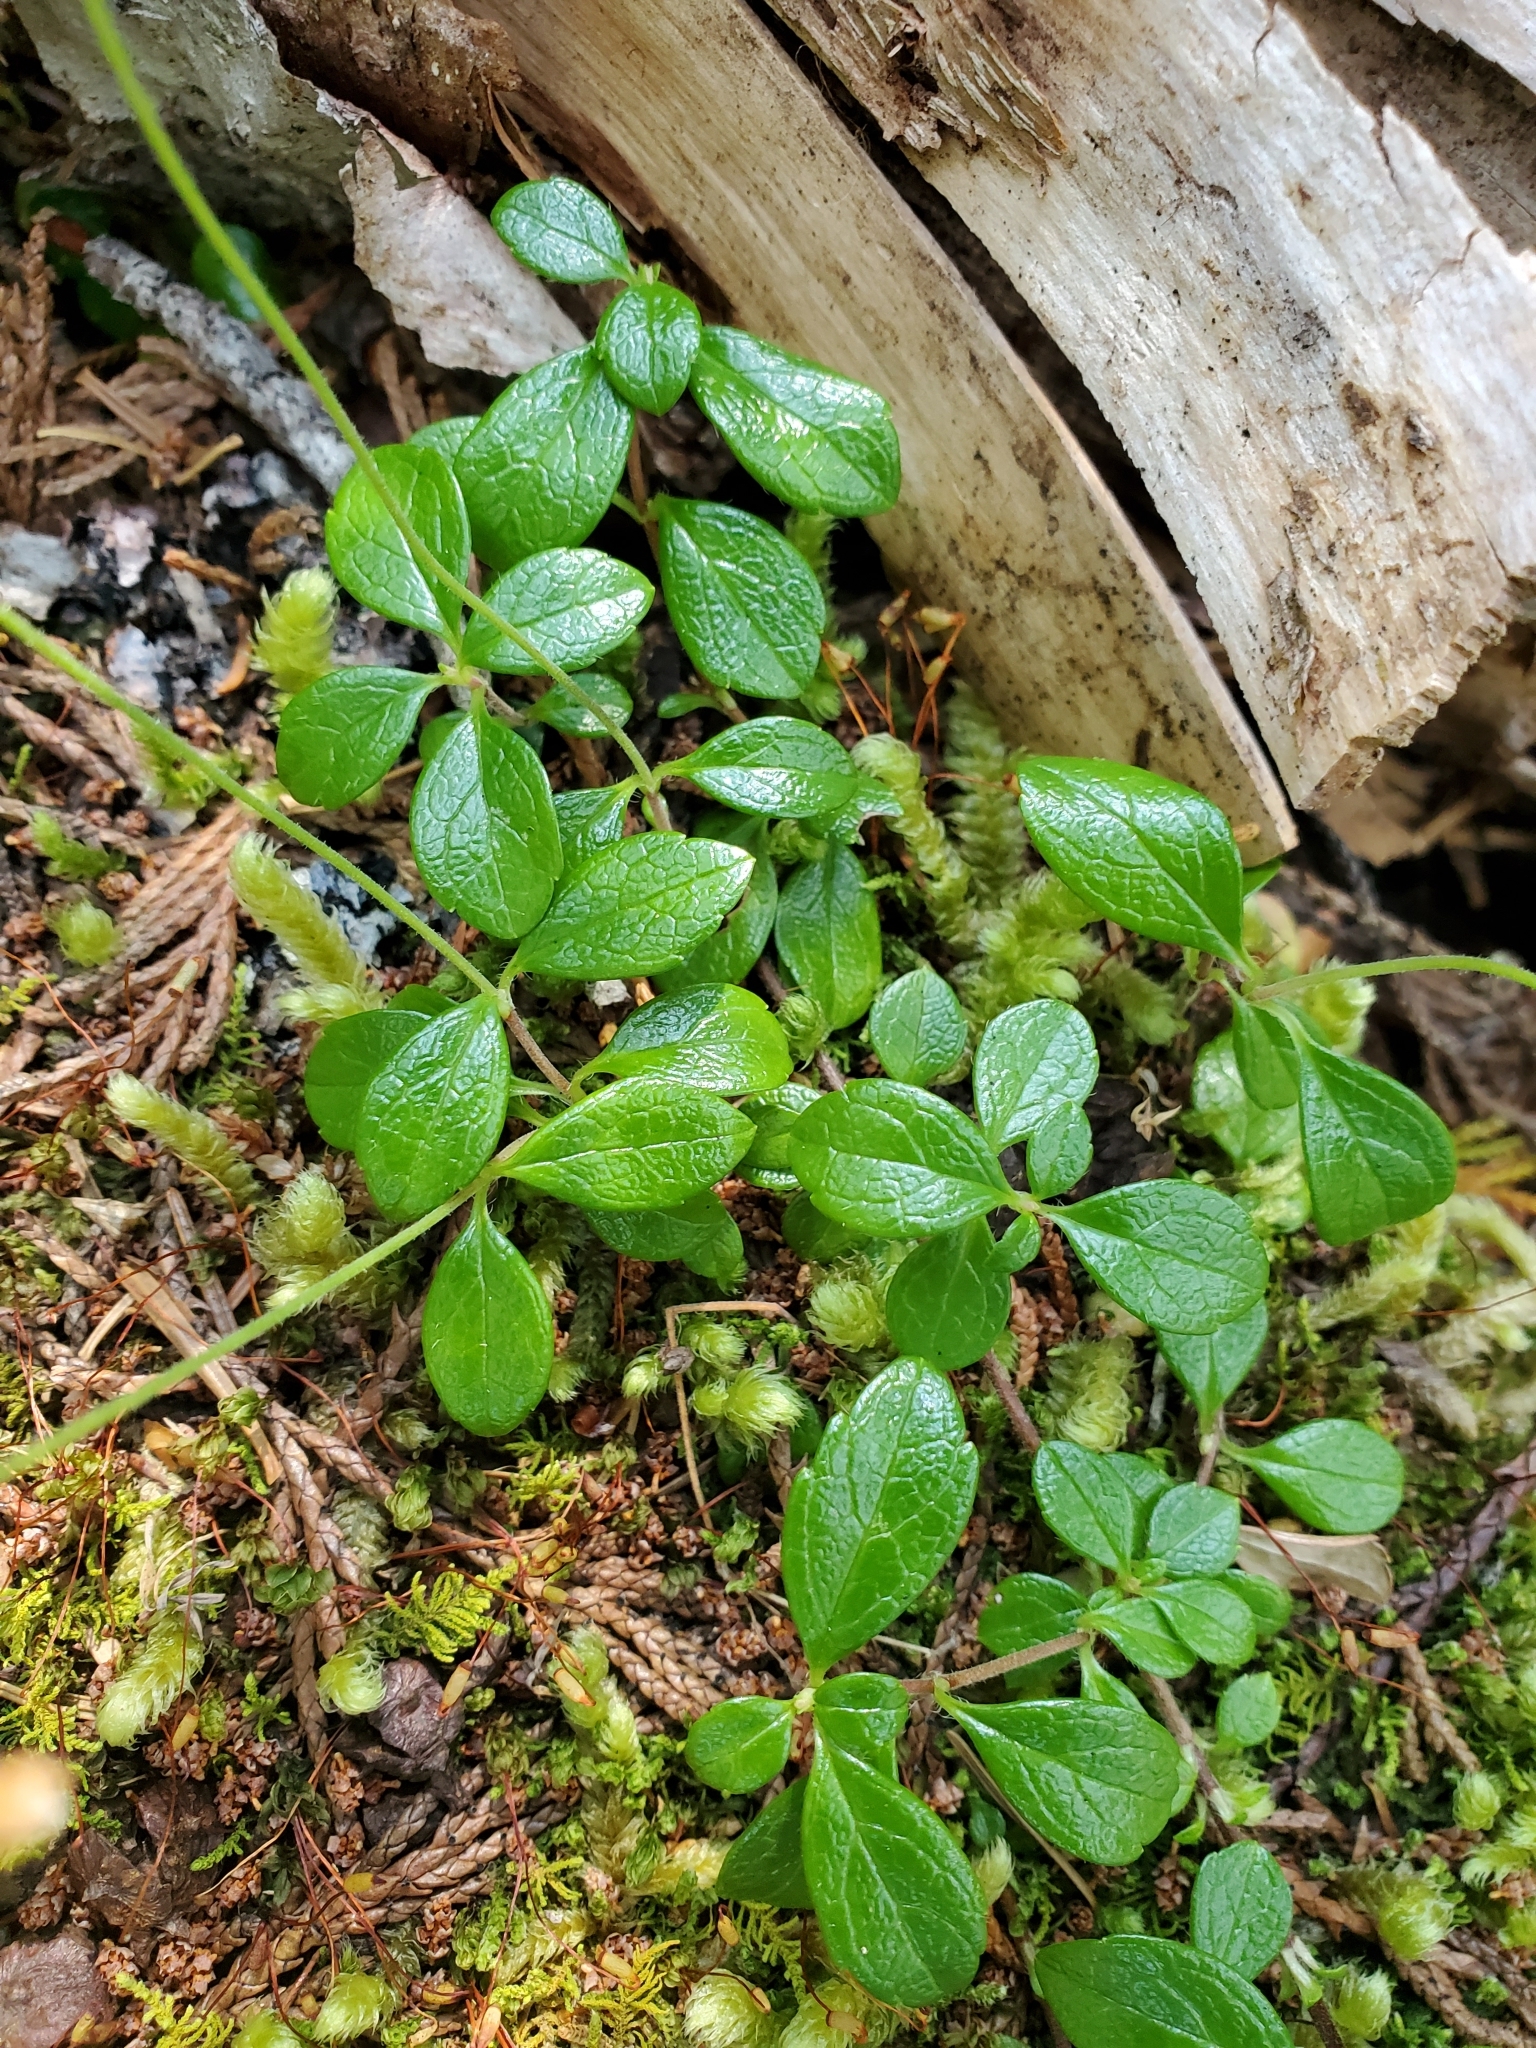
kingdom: Plantae
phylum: Tracheophyta
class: Magnoliopsida
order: Dipsacales
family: Caprifoliaceae
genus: Linnaea
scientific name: Linnaea borealis
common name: Twinflower
